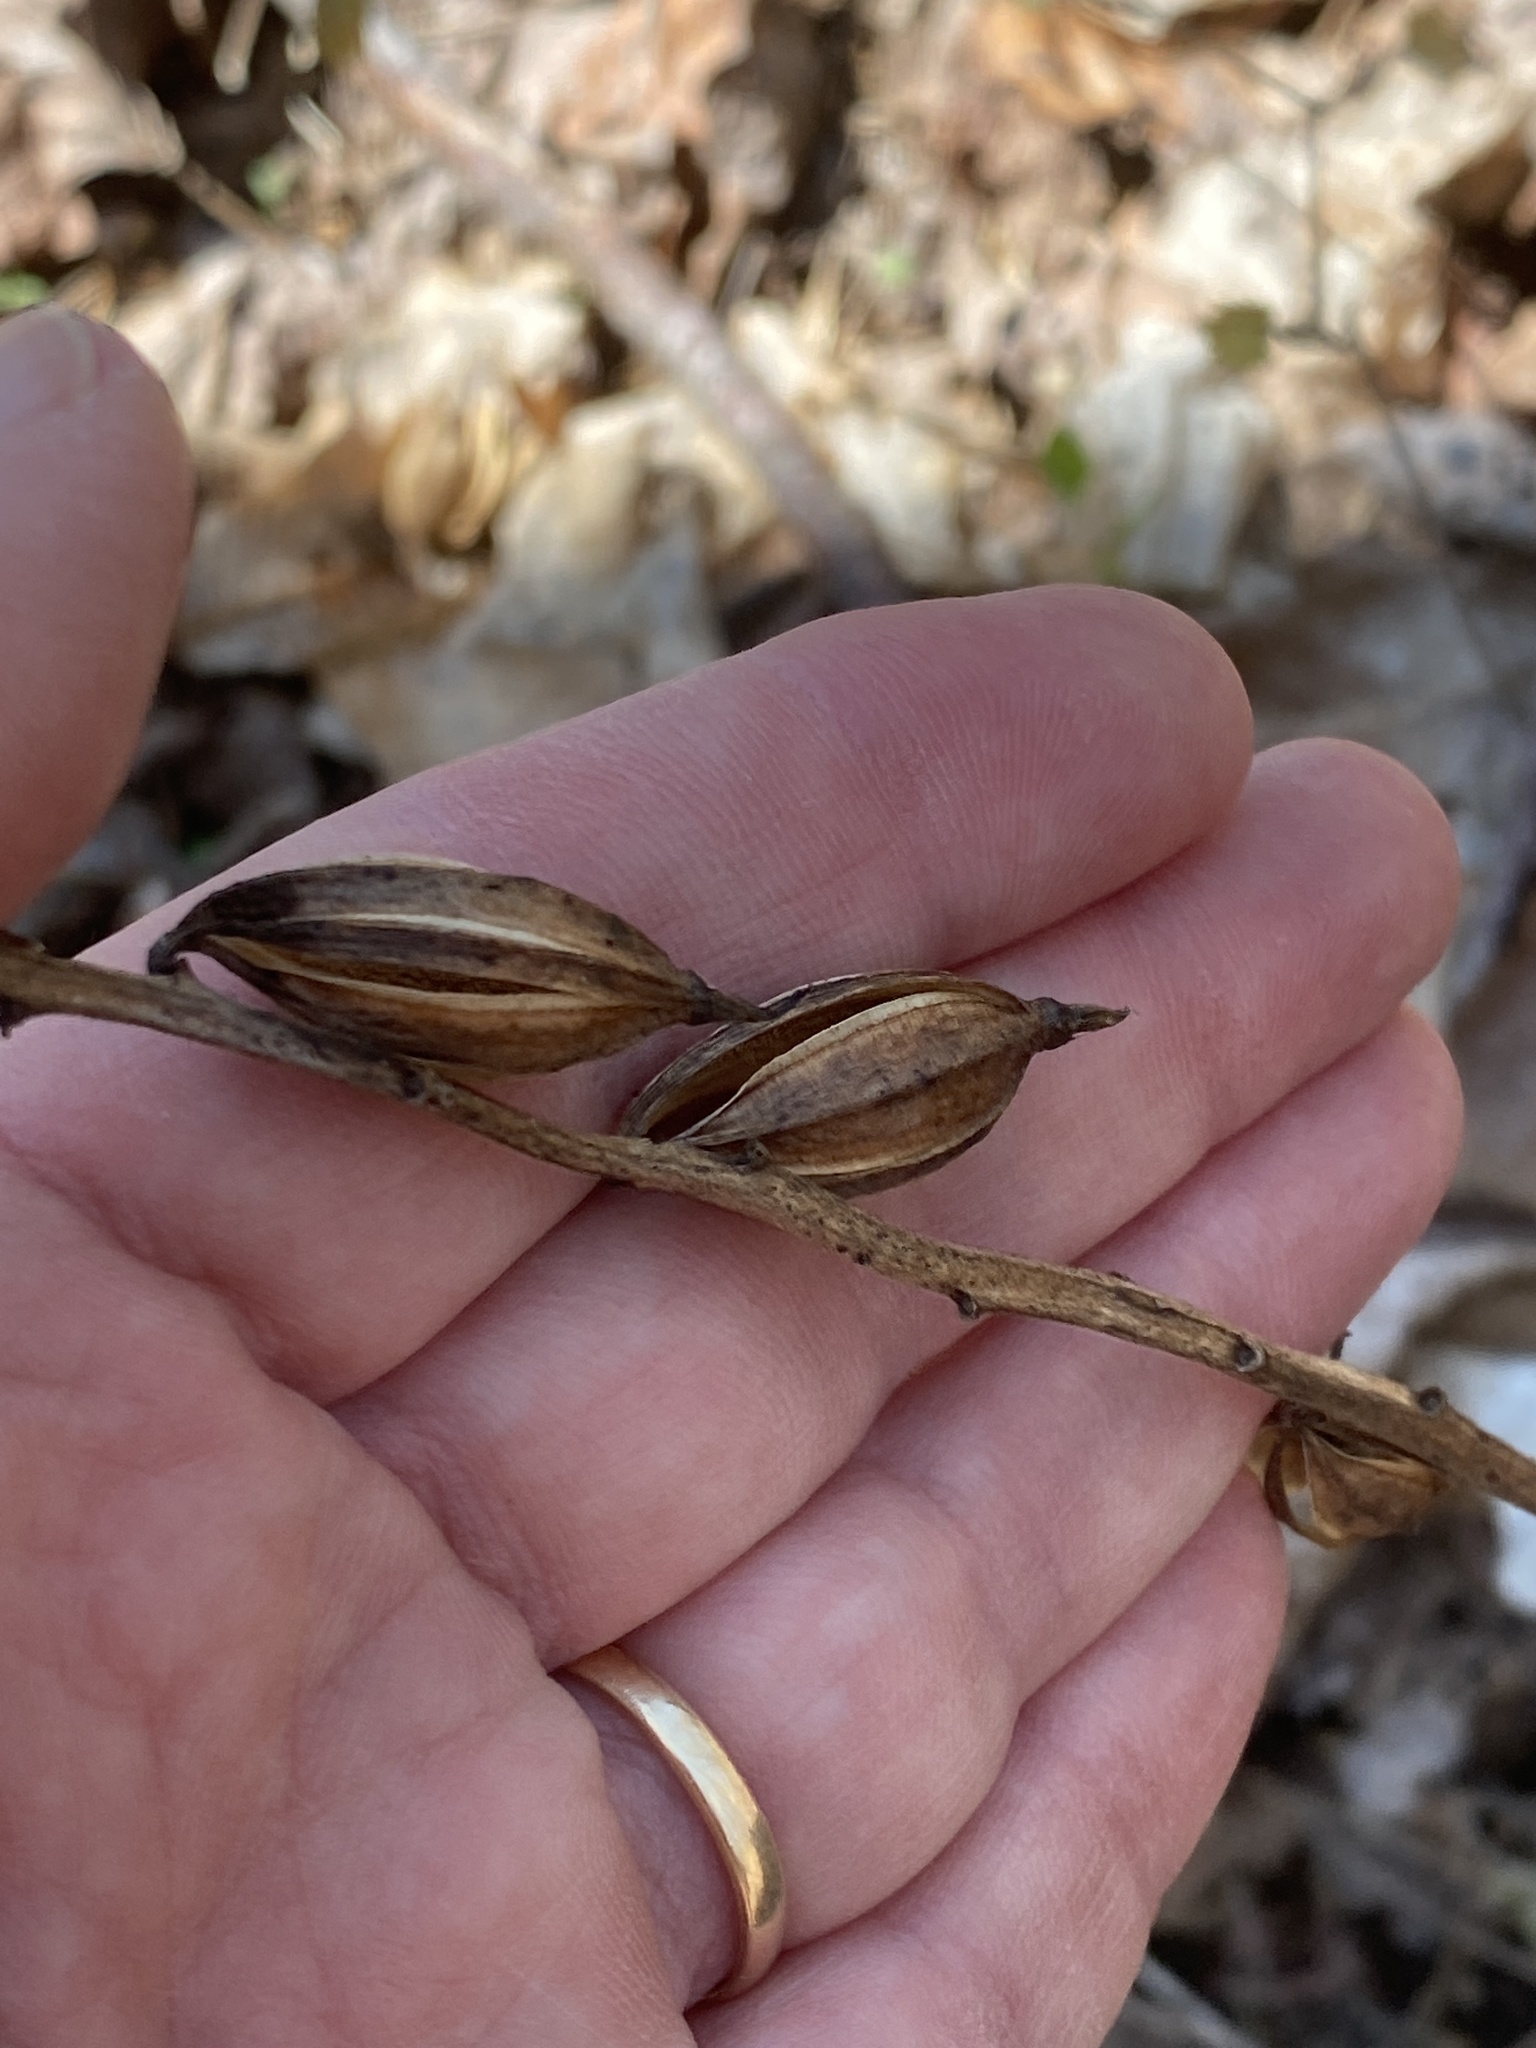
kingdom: Plantae
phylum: Tracheophyta
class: Liliopsida
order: Asparagales
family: Orchidaceae
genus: Aplectrum
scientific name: Aplectrum hyemale
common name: Adam-and-eve
